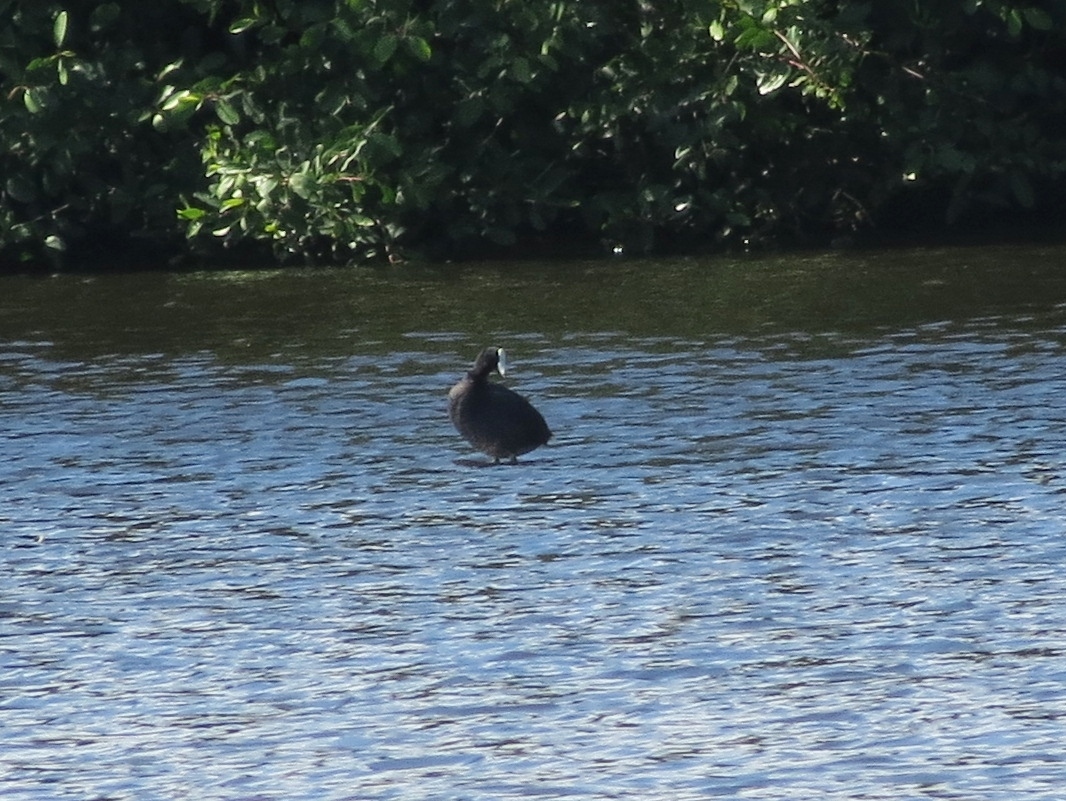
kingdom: Animalia
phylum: Chordata
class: Aves
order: Gruiformes
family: Rallidae
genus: Fulica
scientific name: Fulica americana
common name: American coot
